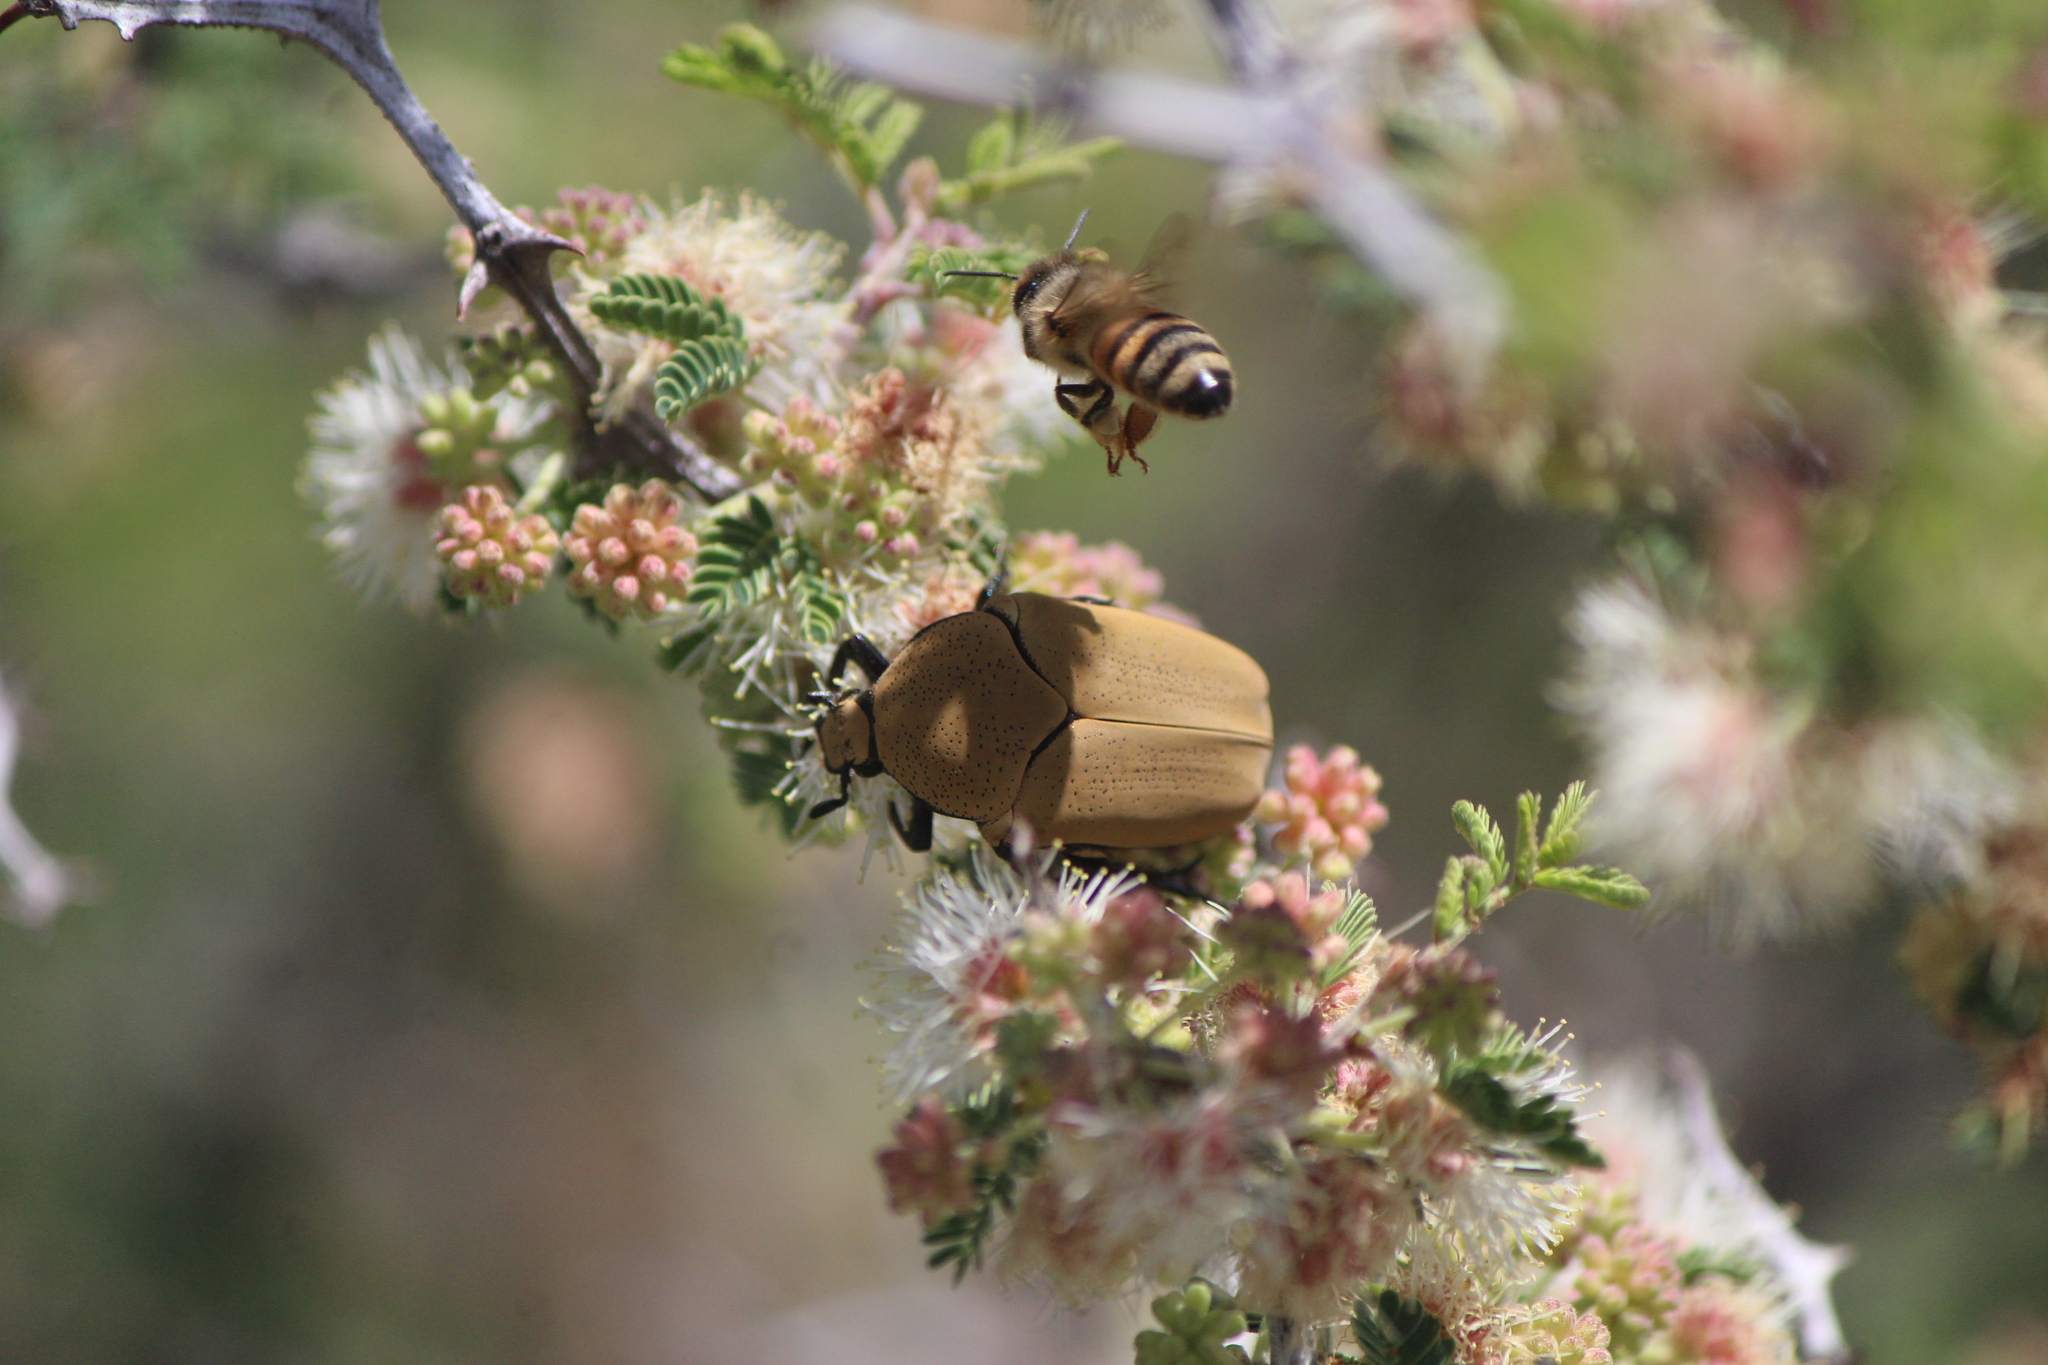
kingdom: Animalia
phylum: Arthropoda
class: Insecta
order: Hymenoptera
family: Apidae
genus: Apis
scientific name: Apis mellifera
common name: Honey bee
